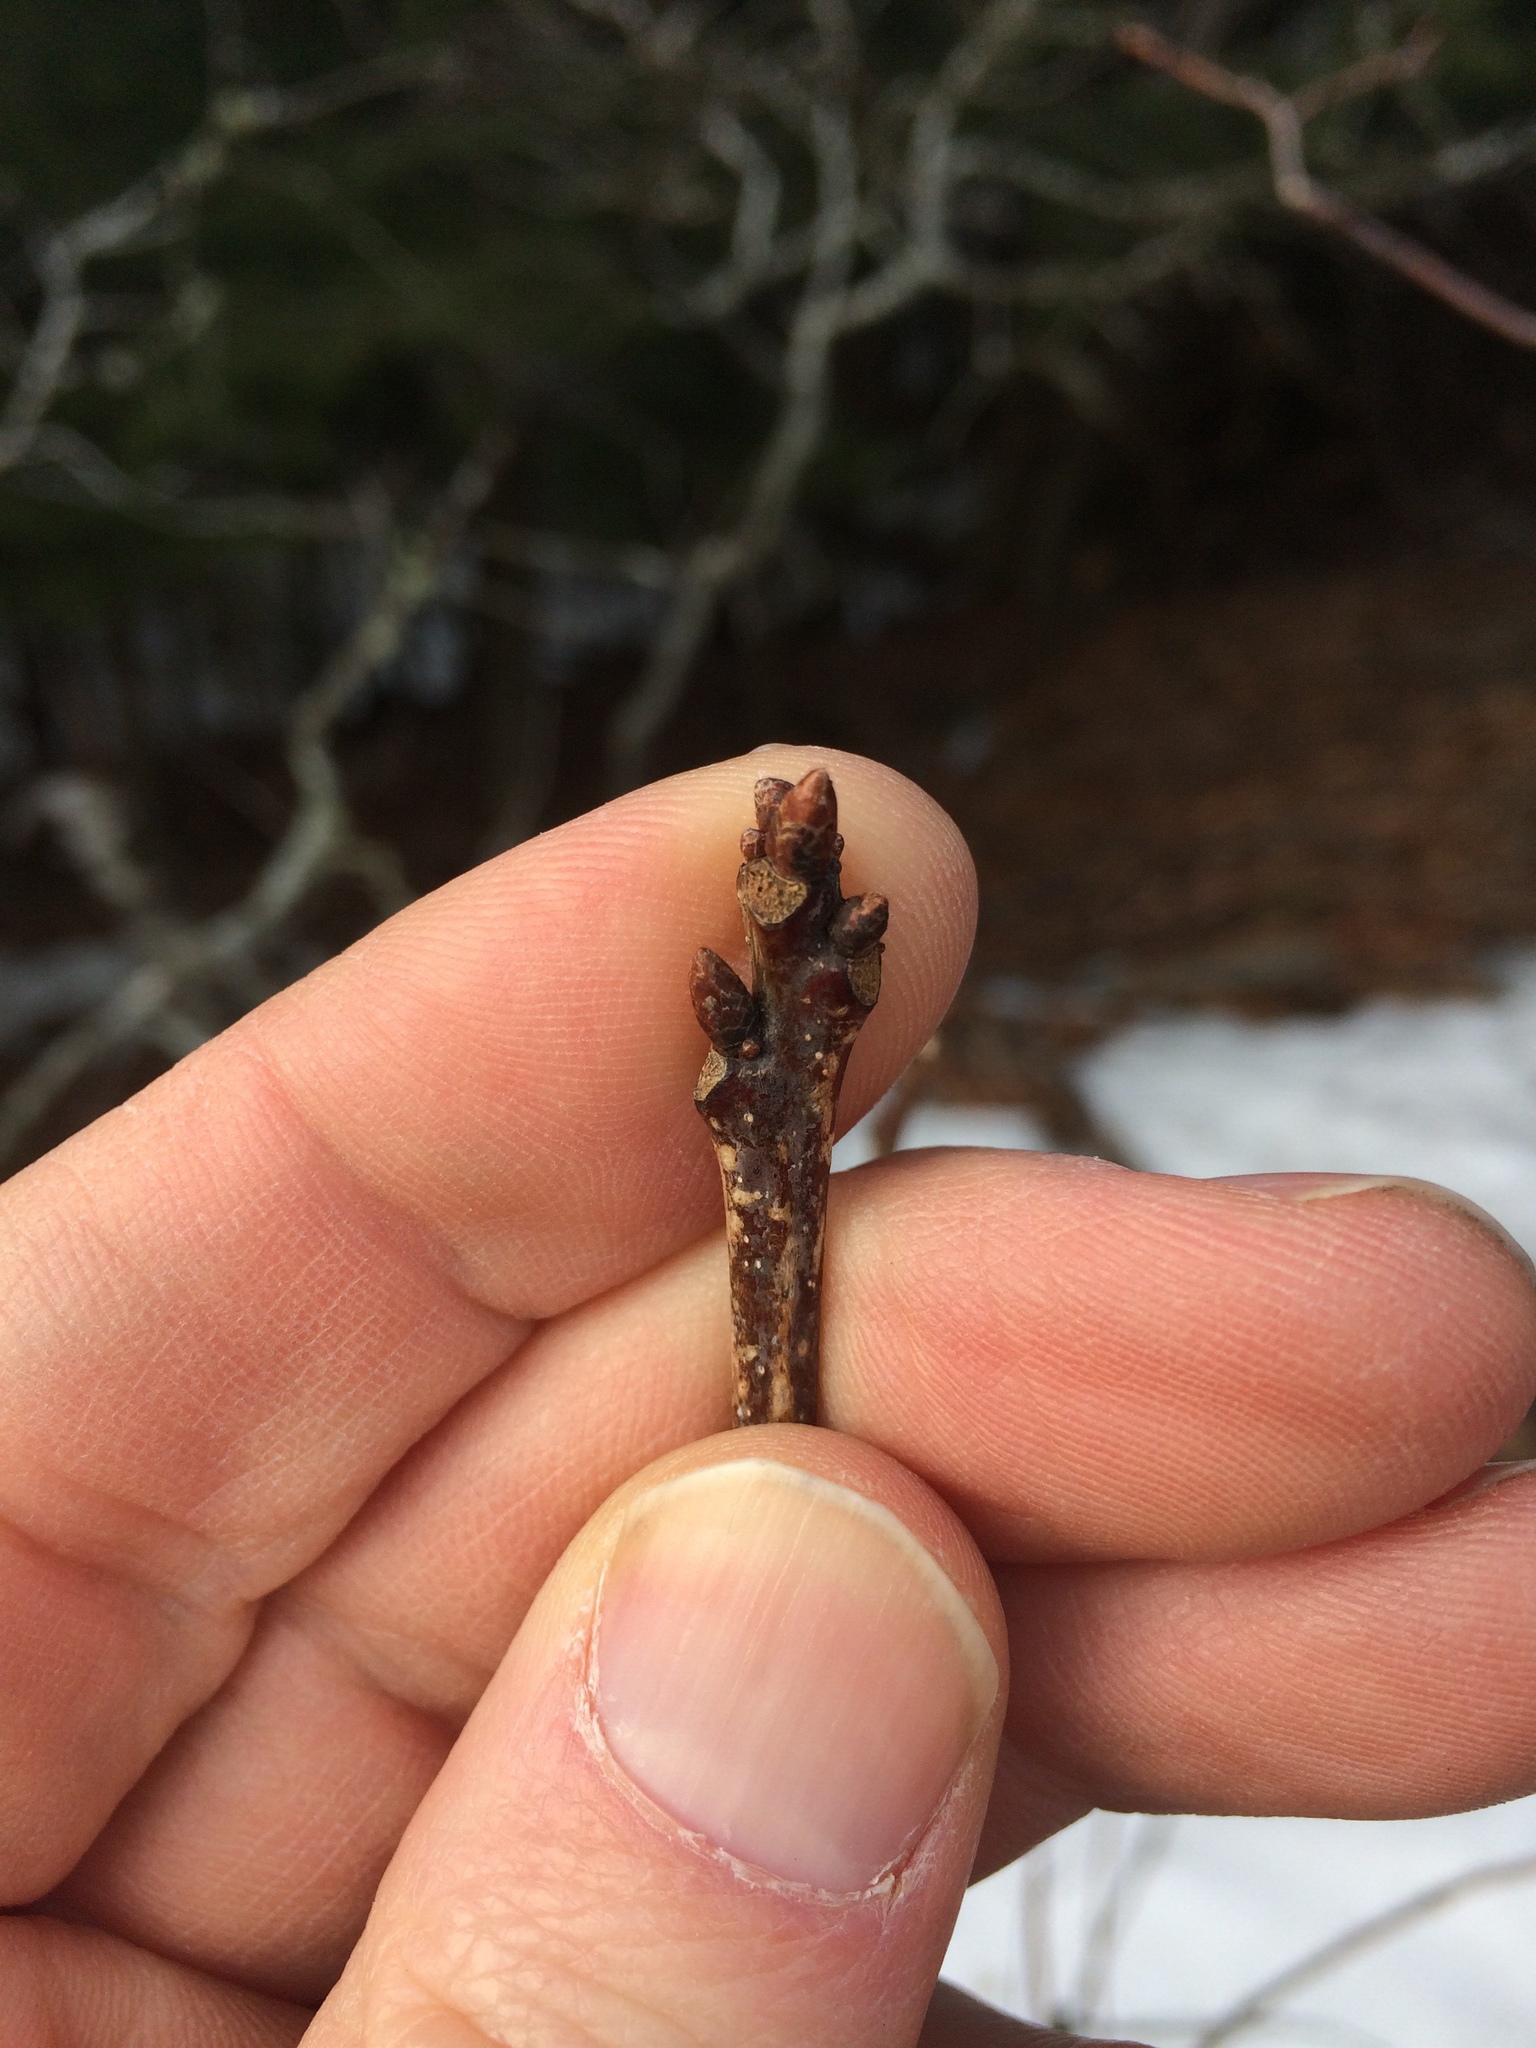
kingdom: Plantae
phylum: Tracheophyta
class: Magnoliopsida
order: Fagales
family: Fagaceae
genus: Quercus
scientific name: Quercus rubra
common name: Red oak
